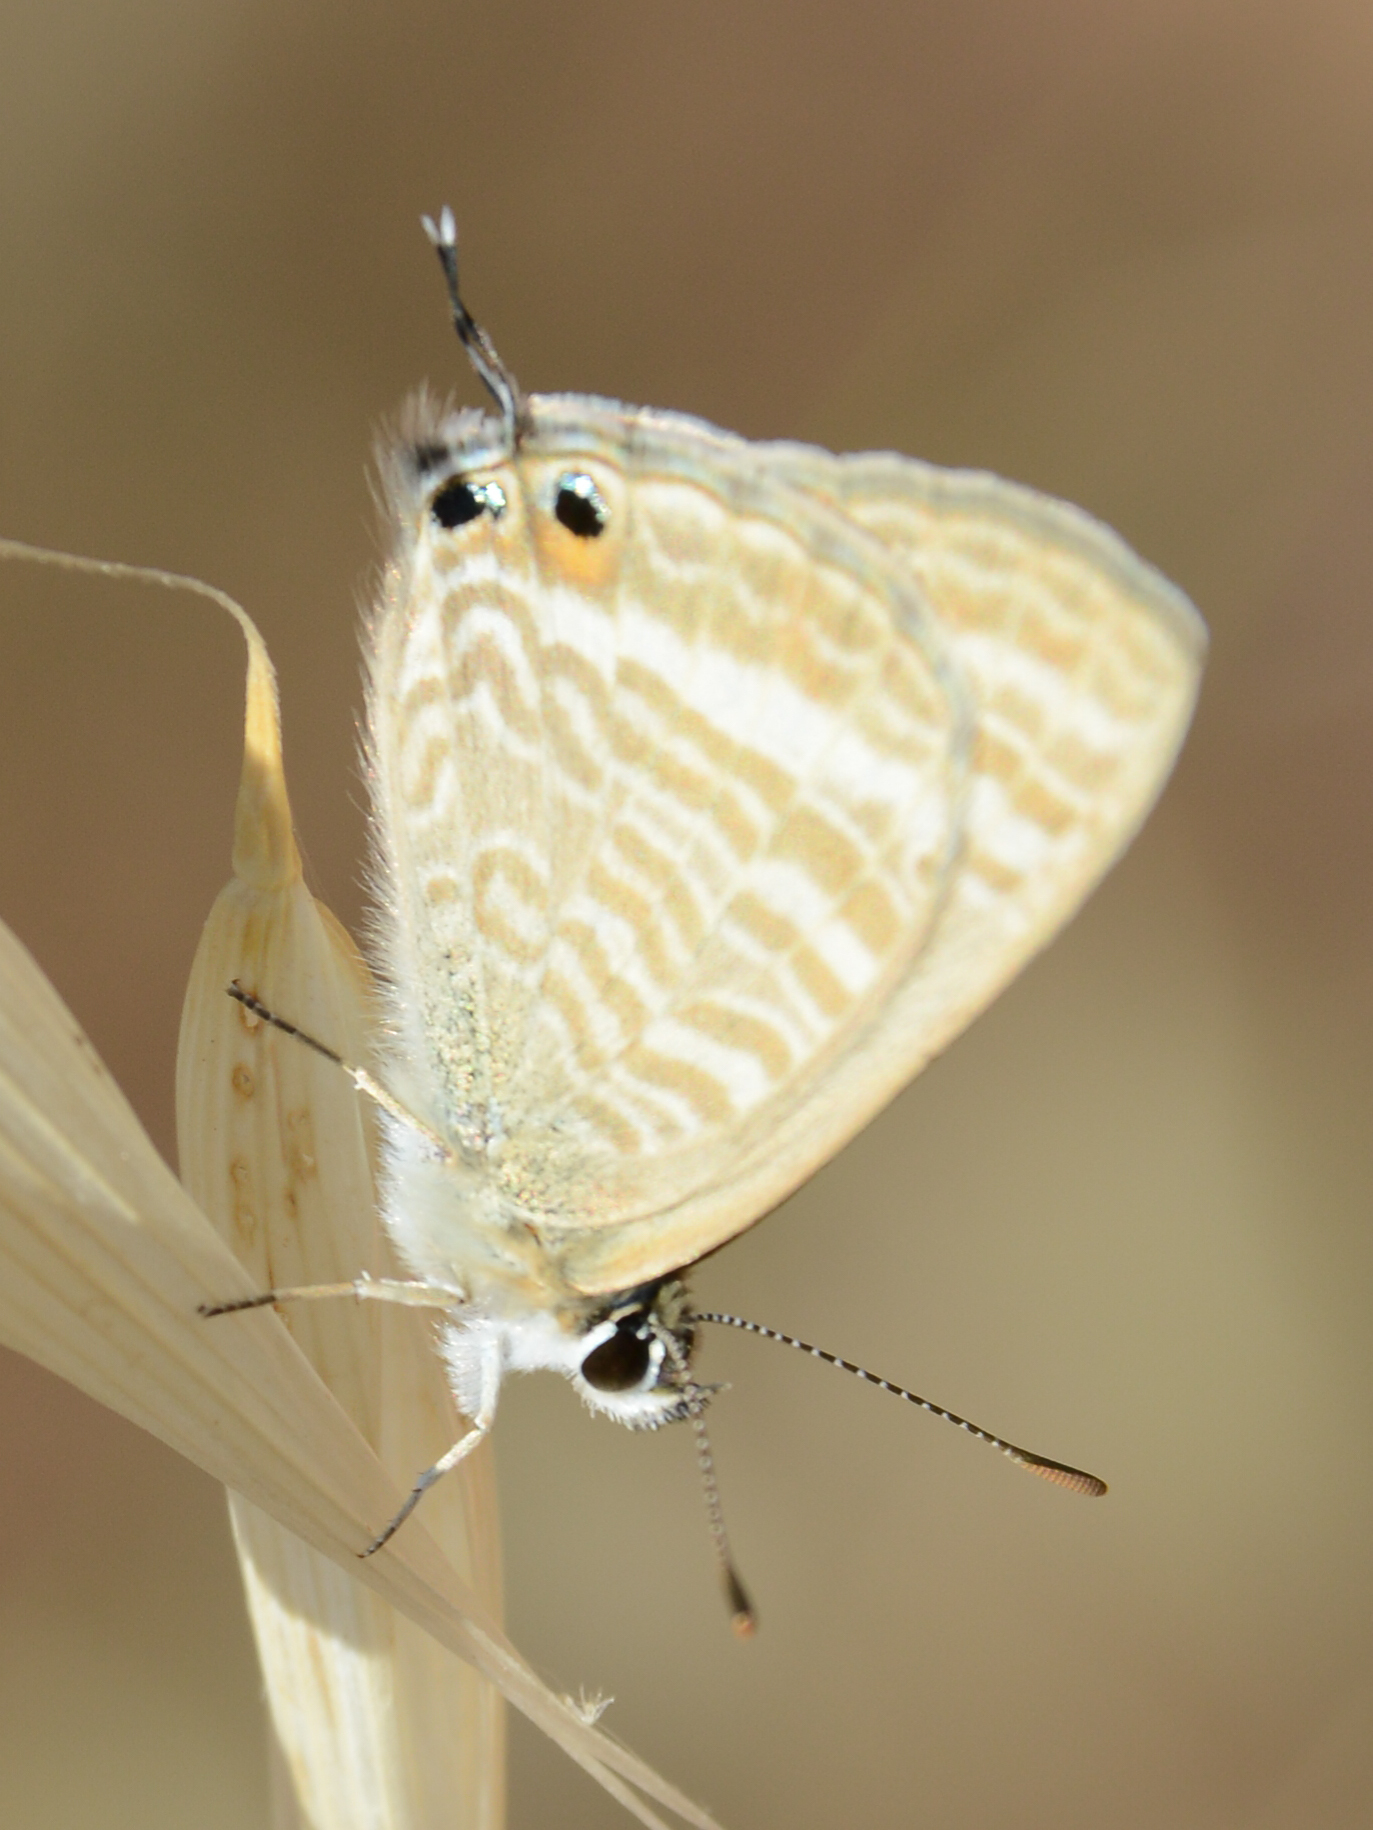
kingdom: Animalia
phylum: Arthropoda
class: Insecta
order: Lepidoptera
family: Lycaenidae
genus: Lampides
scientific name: Lampides boeticus
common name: Long-tailed blue
